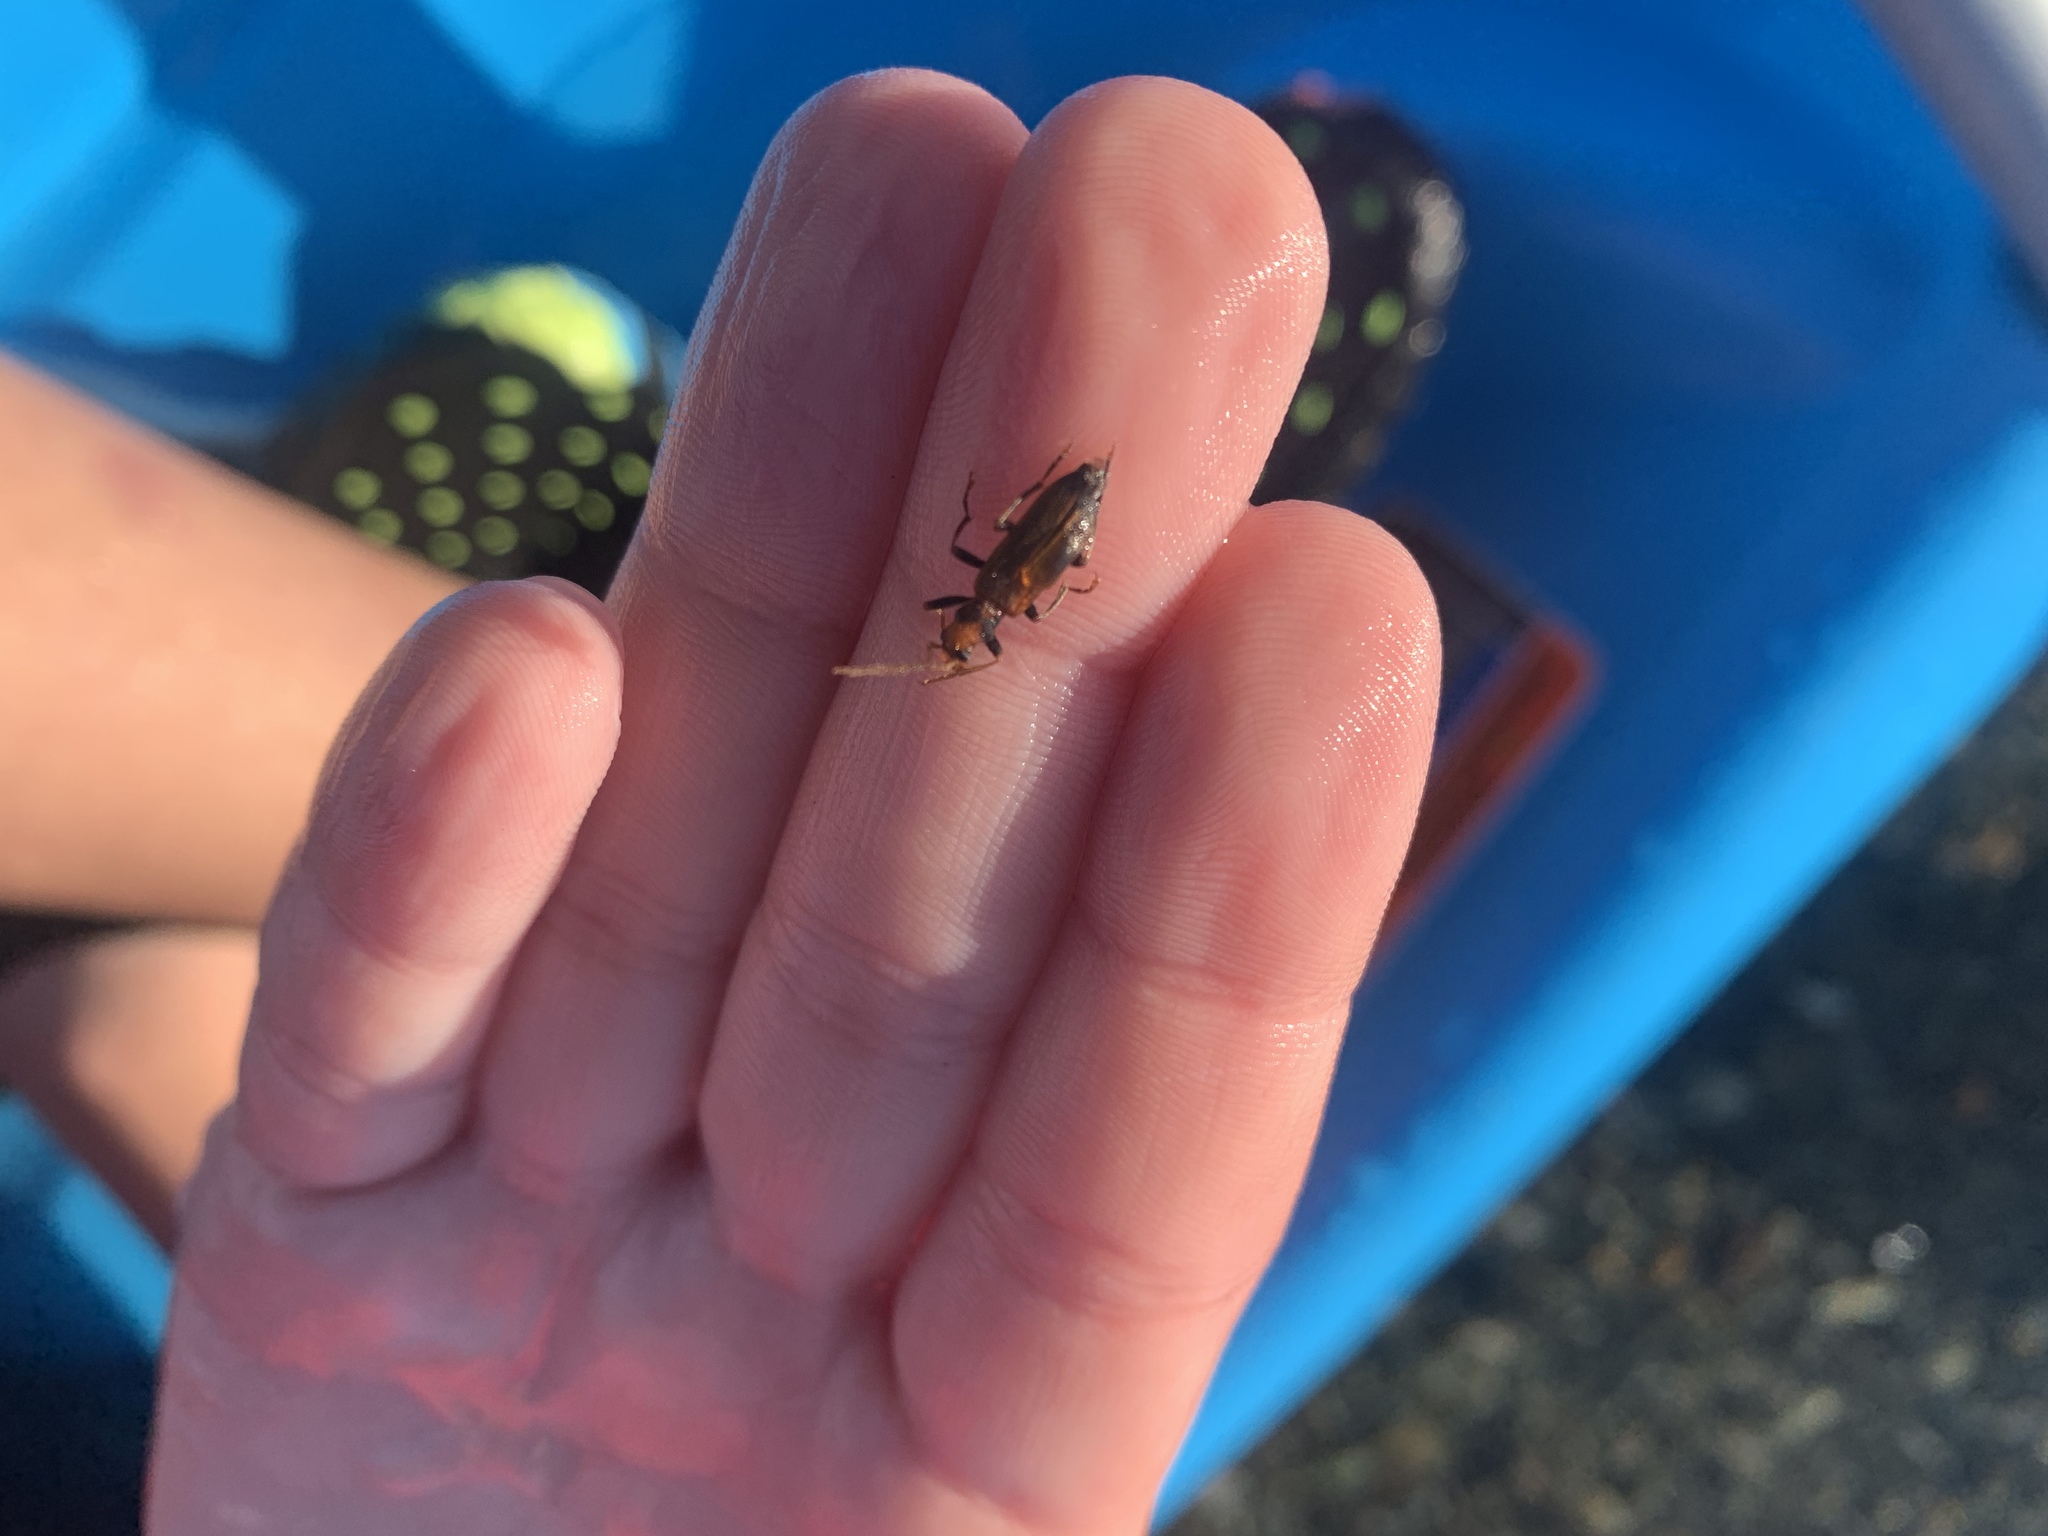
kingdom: Animalia
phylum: Arthropoda
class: Insecta
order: Coleoptera
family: Oedemeridae
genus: Nacerdes
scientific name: Nacerdes melanura
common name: Wharf borer
